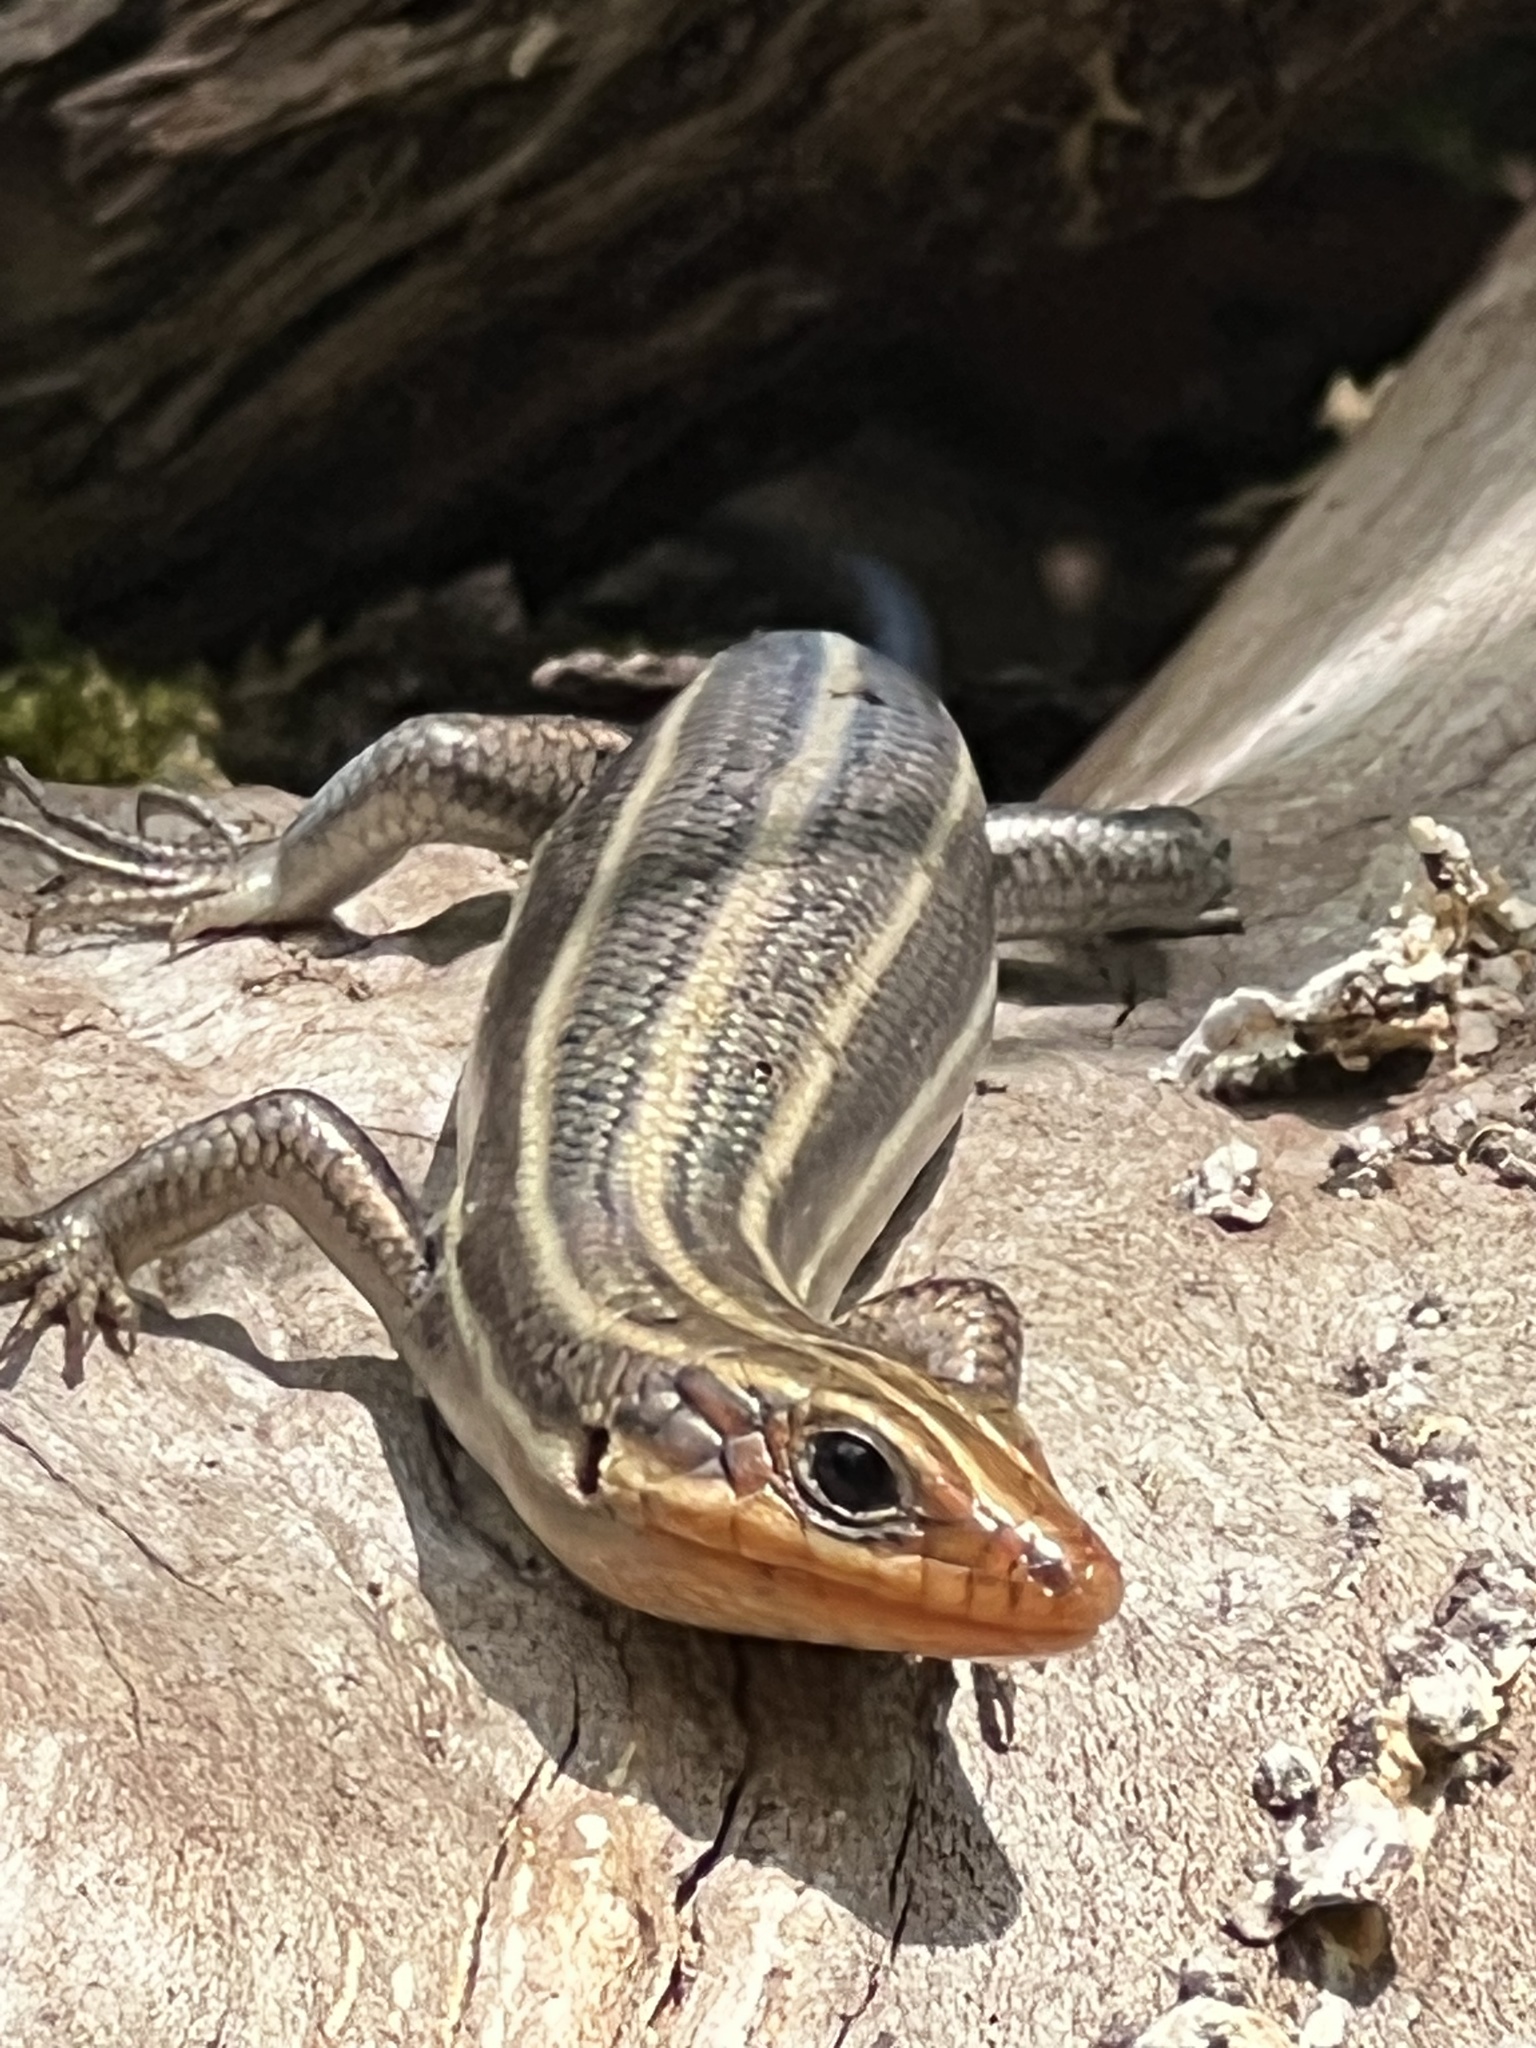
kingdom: Animalia
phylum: Chordata
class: Squamata
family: Scincidae
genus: Plestiodon
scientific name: Plestiodon fasciatus
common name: Five-lined skink
